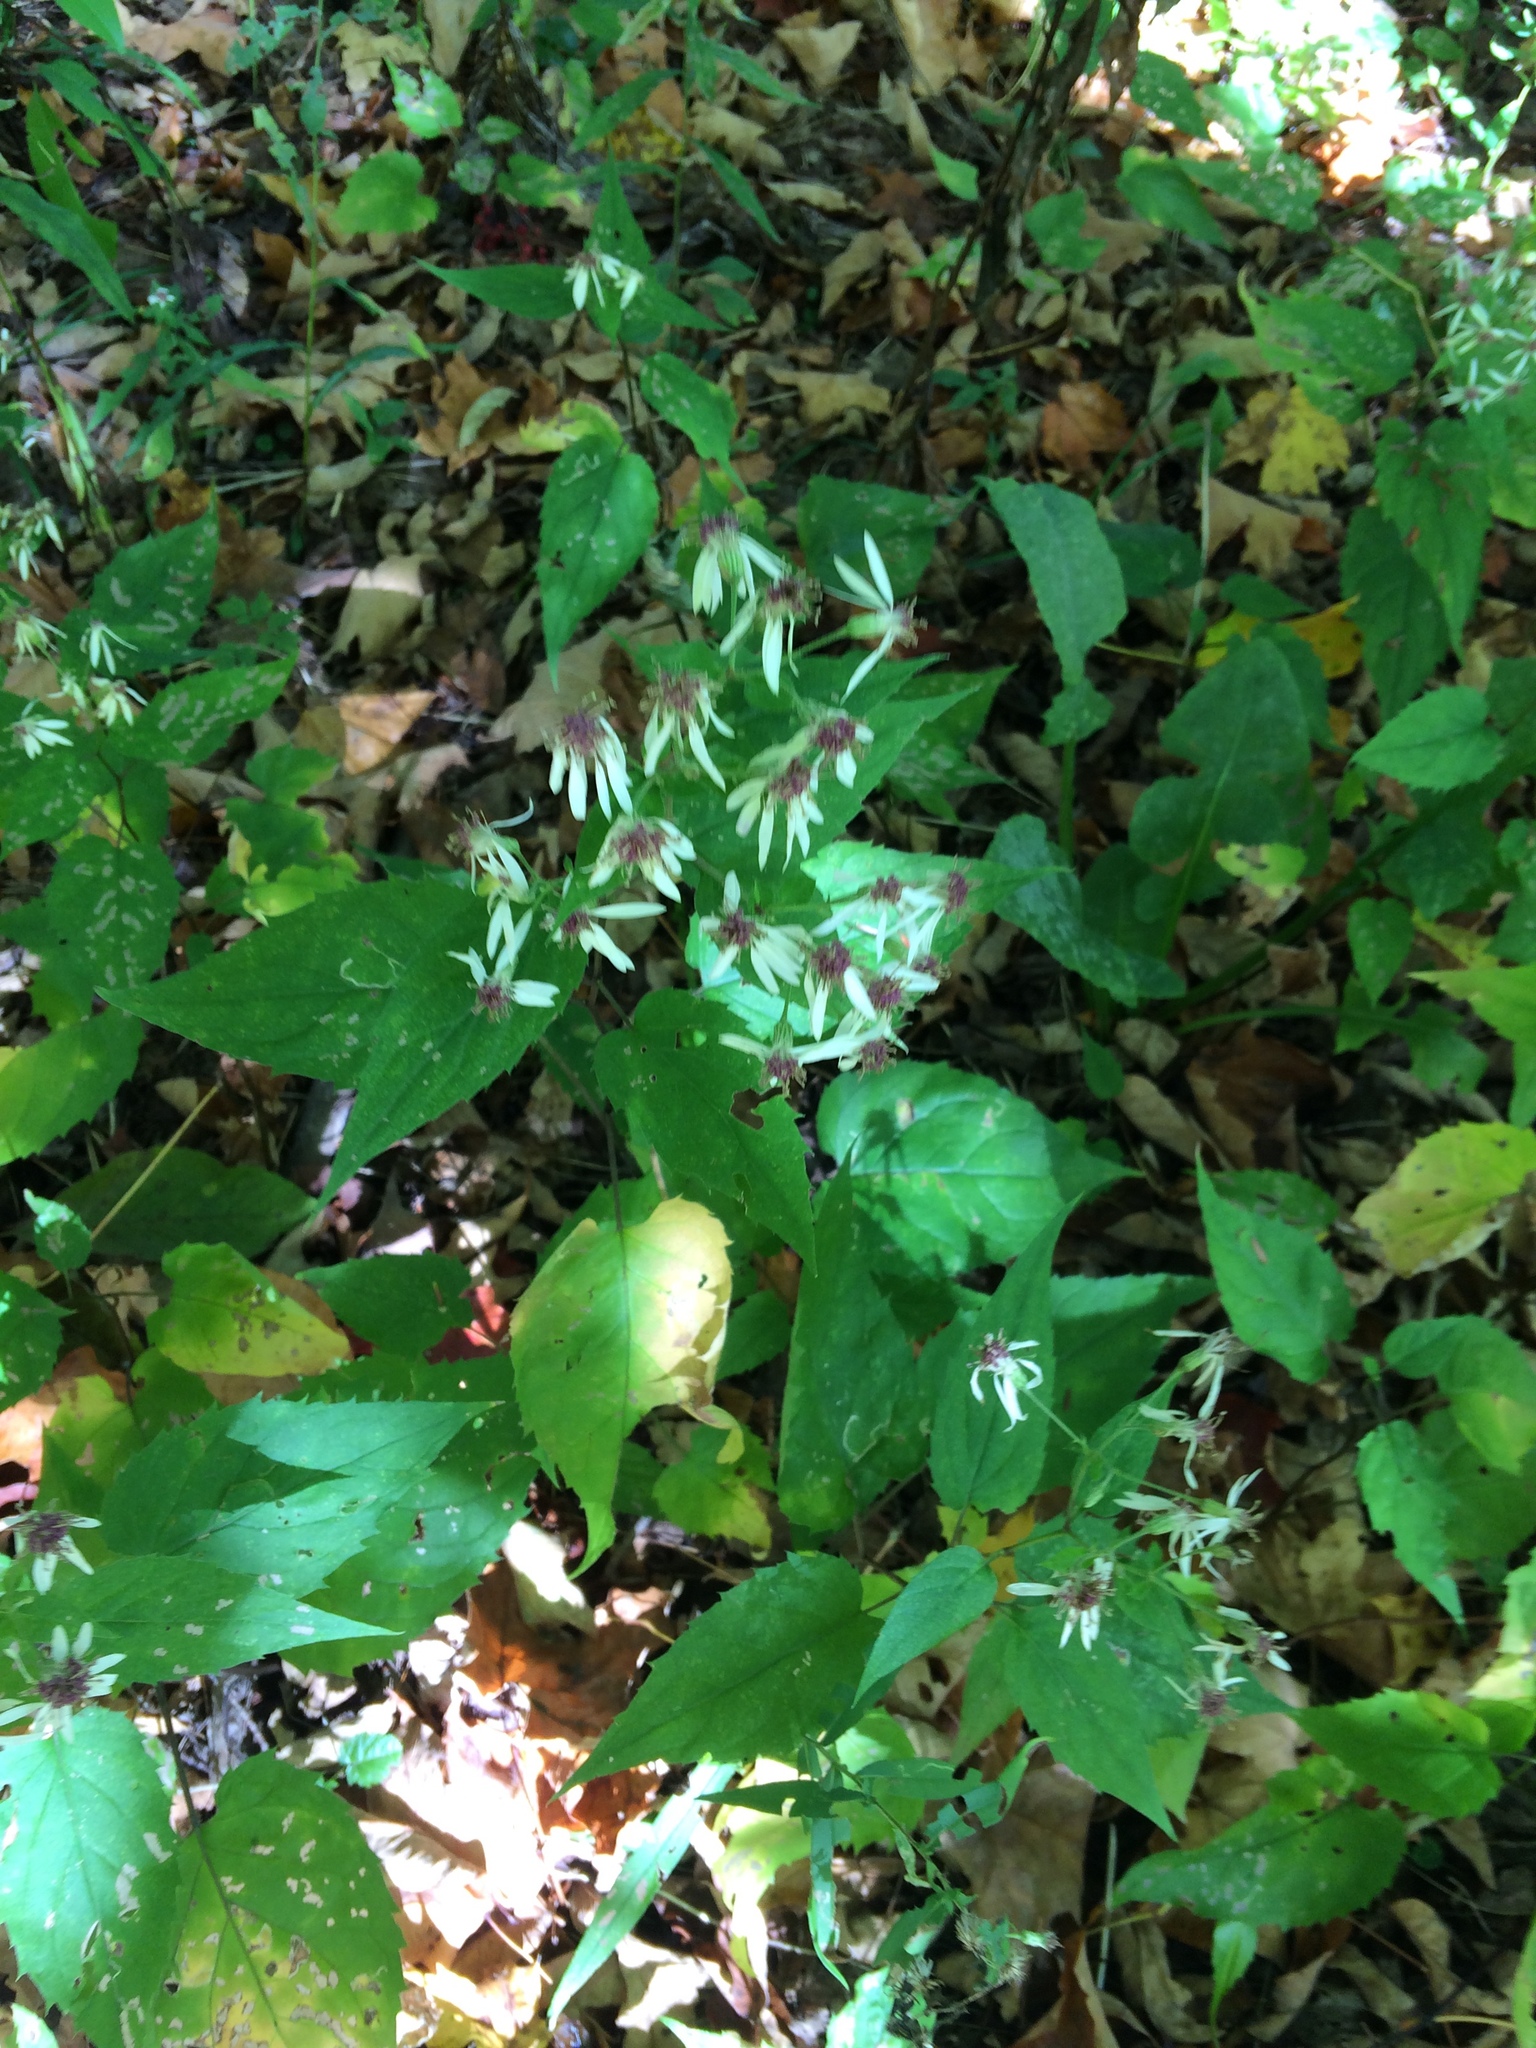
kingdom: Plantae
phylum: Tracheophyta
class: Magnoliopsida
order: Asterales
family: Asteraceae
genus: Eurybia
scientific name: Eurybia divaricata
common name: White wood aster
